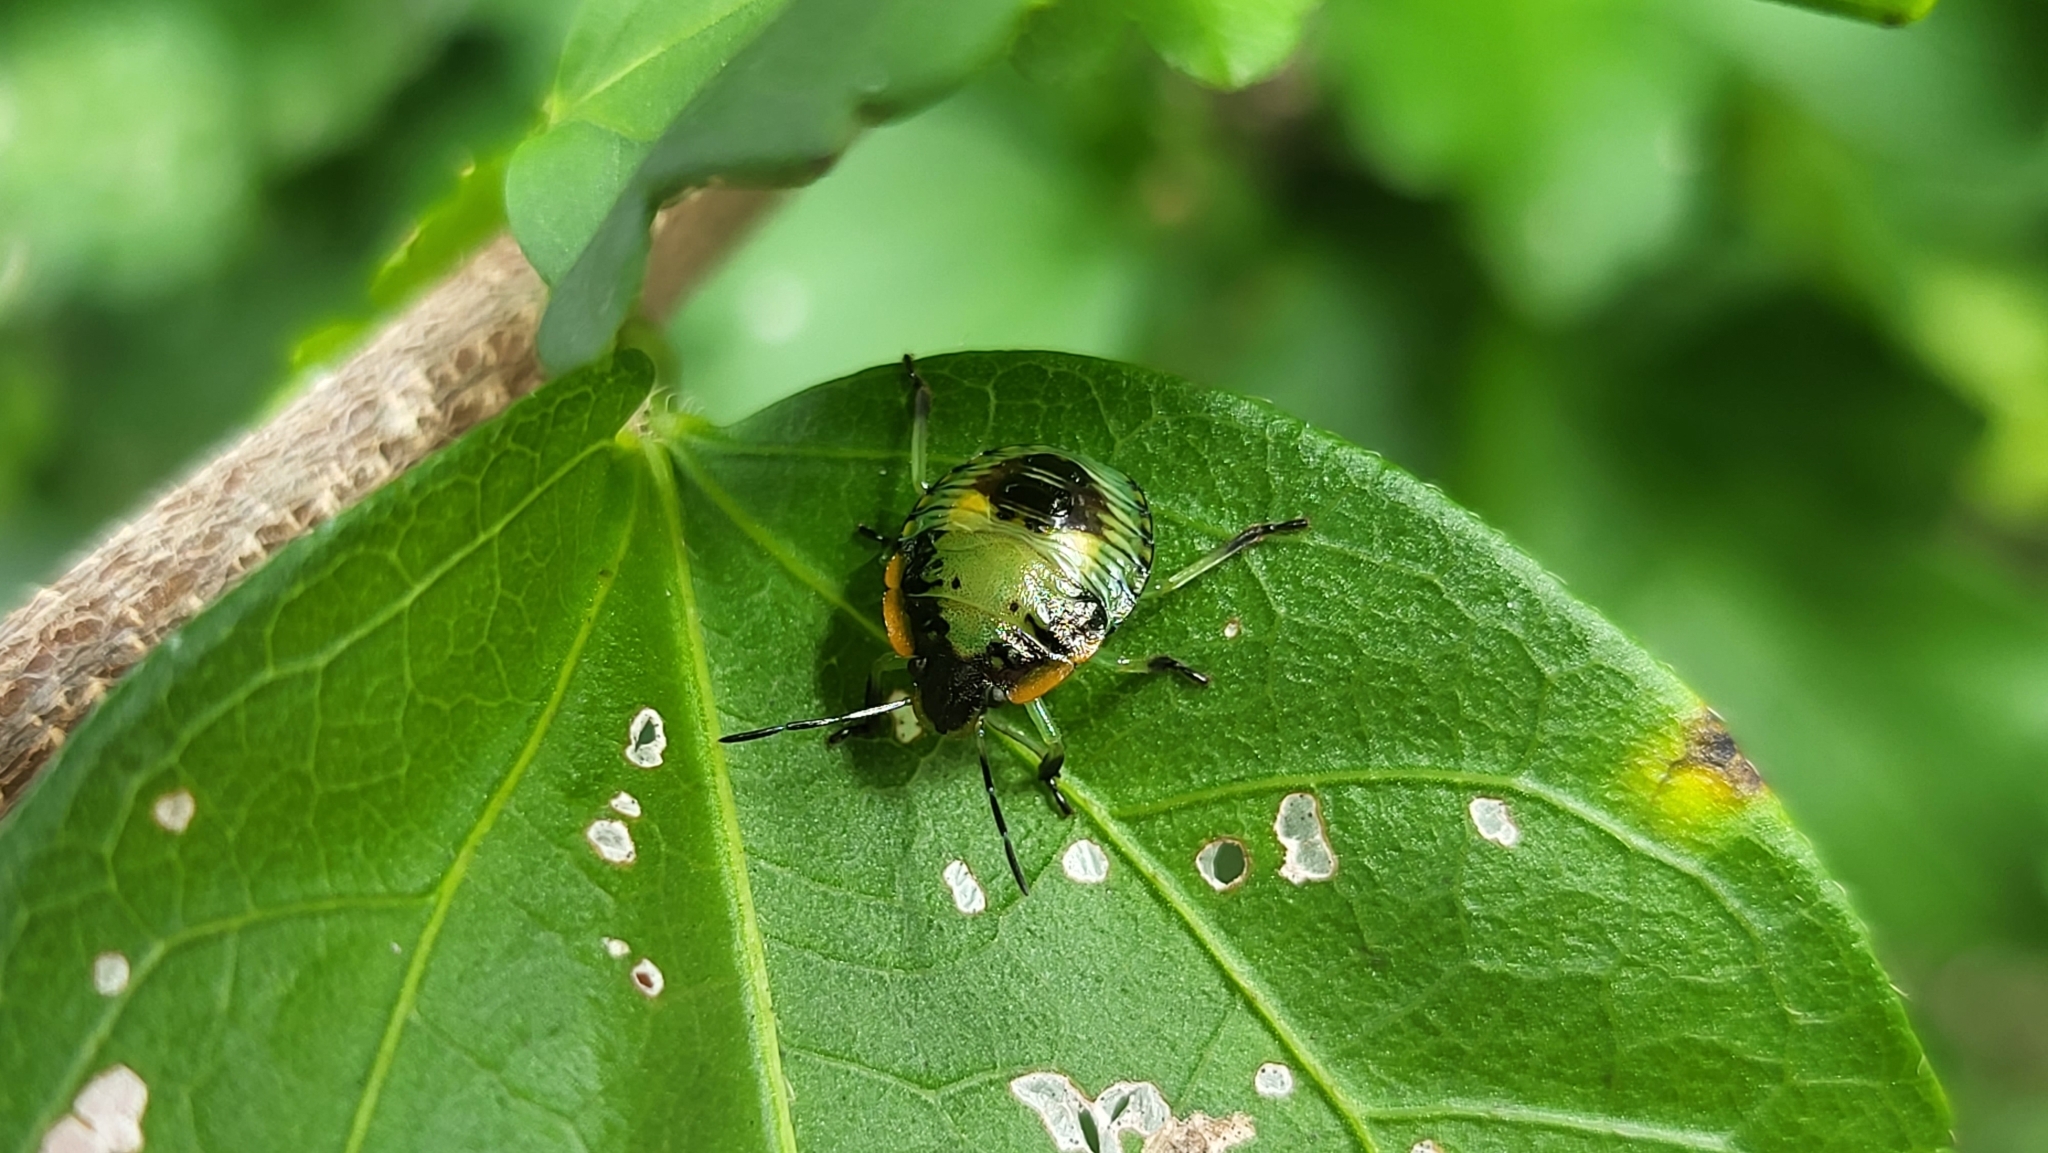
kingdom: Animalia
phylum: Arthropoda
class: Insecta
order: Hemiptera
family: Pentatomidae
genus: Chinavia
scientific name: Chinavia hilaris
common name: Green stink bug
